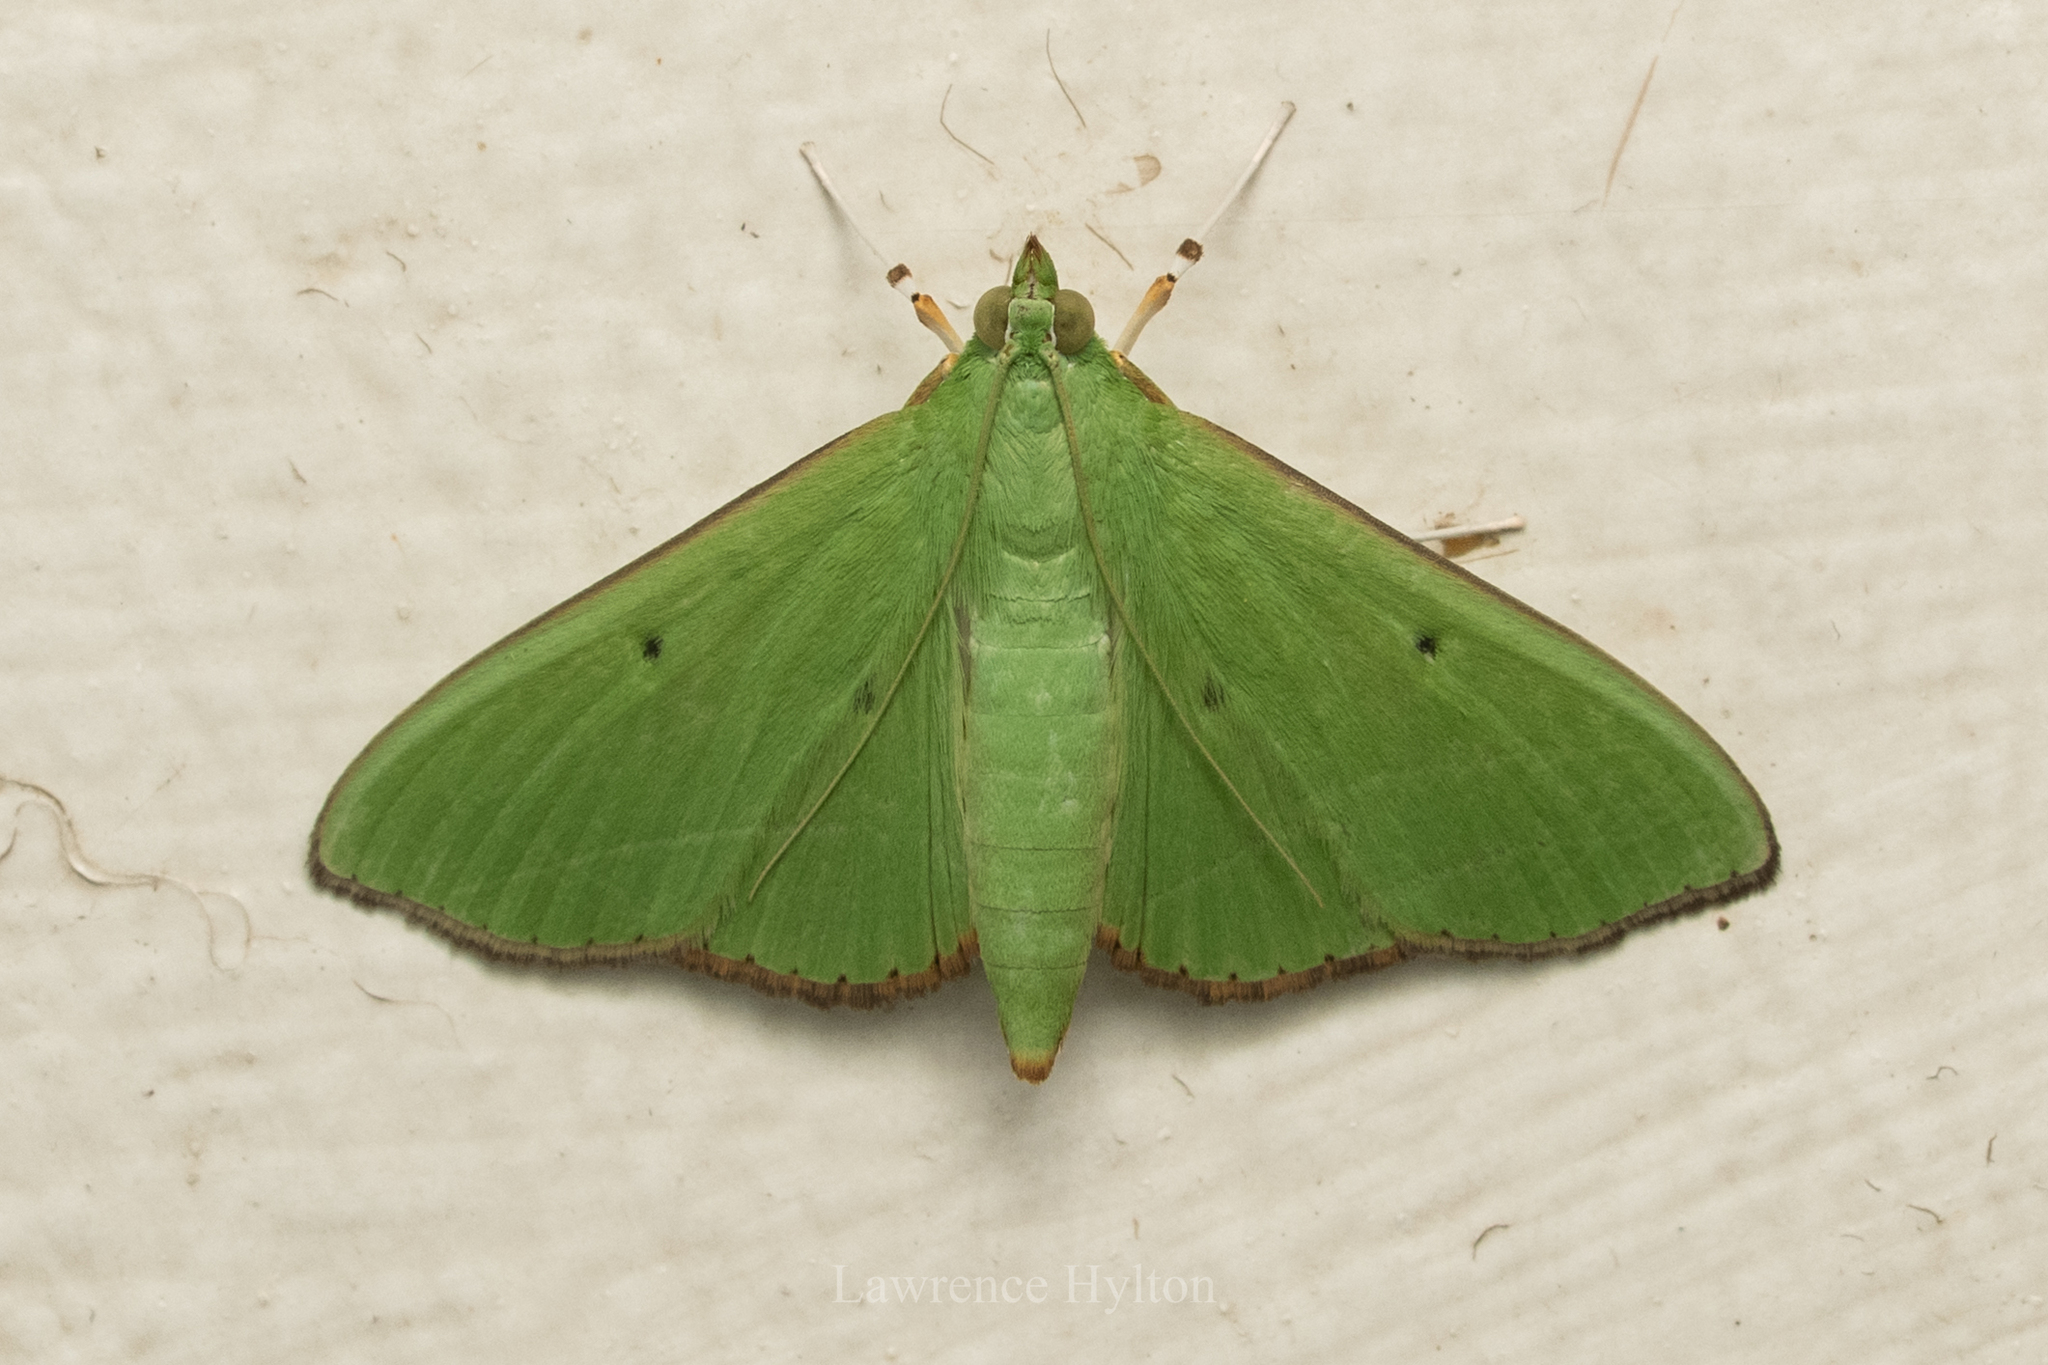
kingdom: Animalia
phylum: Arthropoda
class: Insecta
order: Lepidoptera
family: Crambidae
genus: Parotis
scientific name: Parotis punctiferalis
